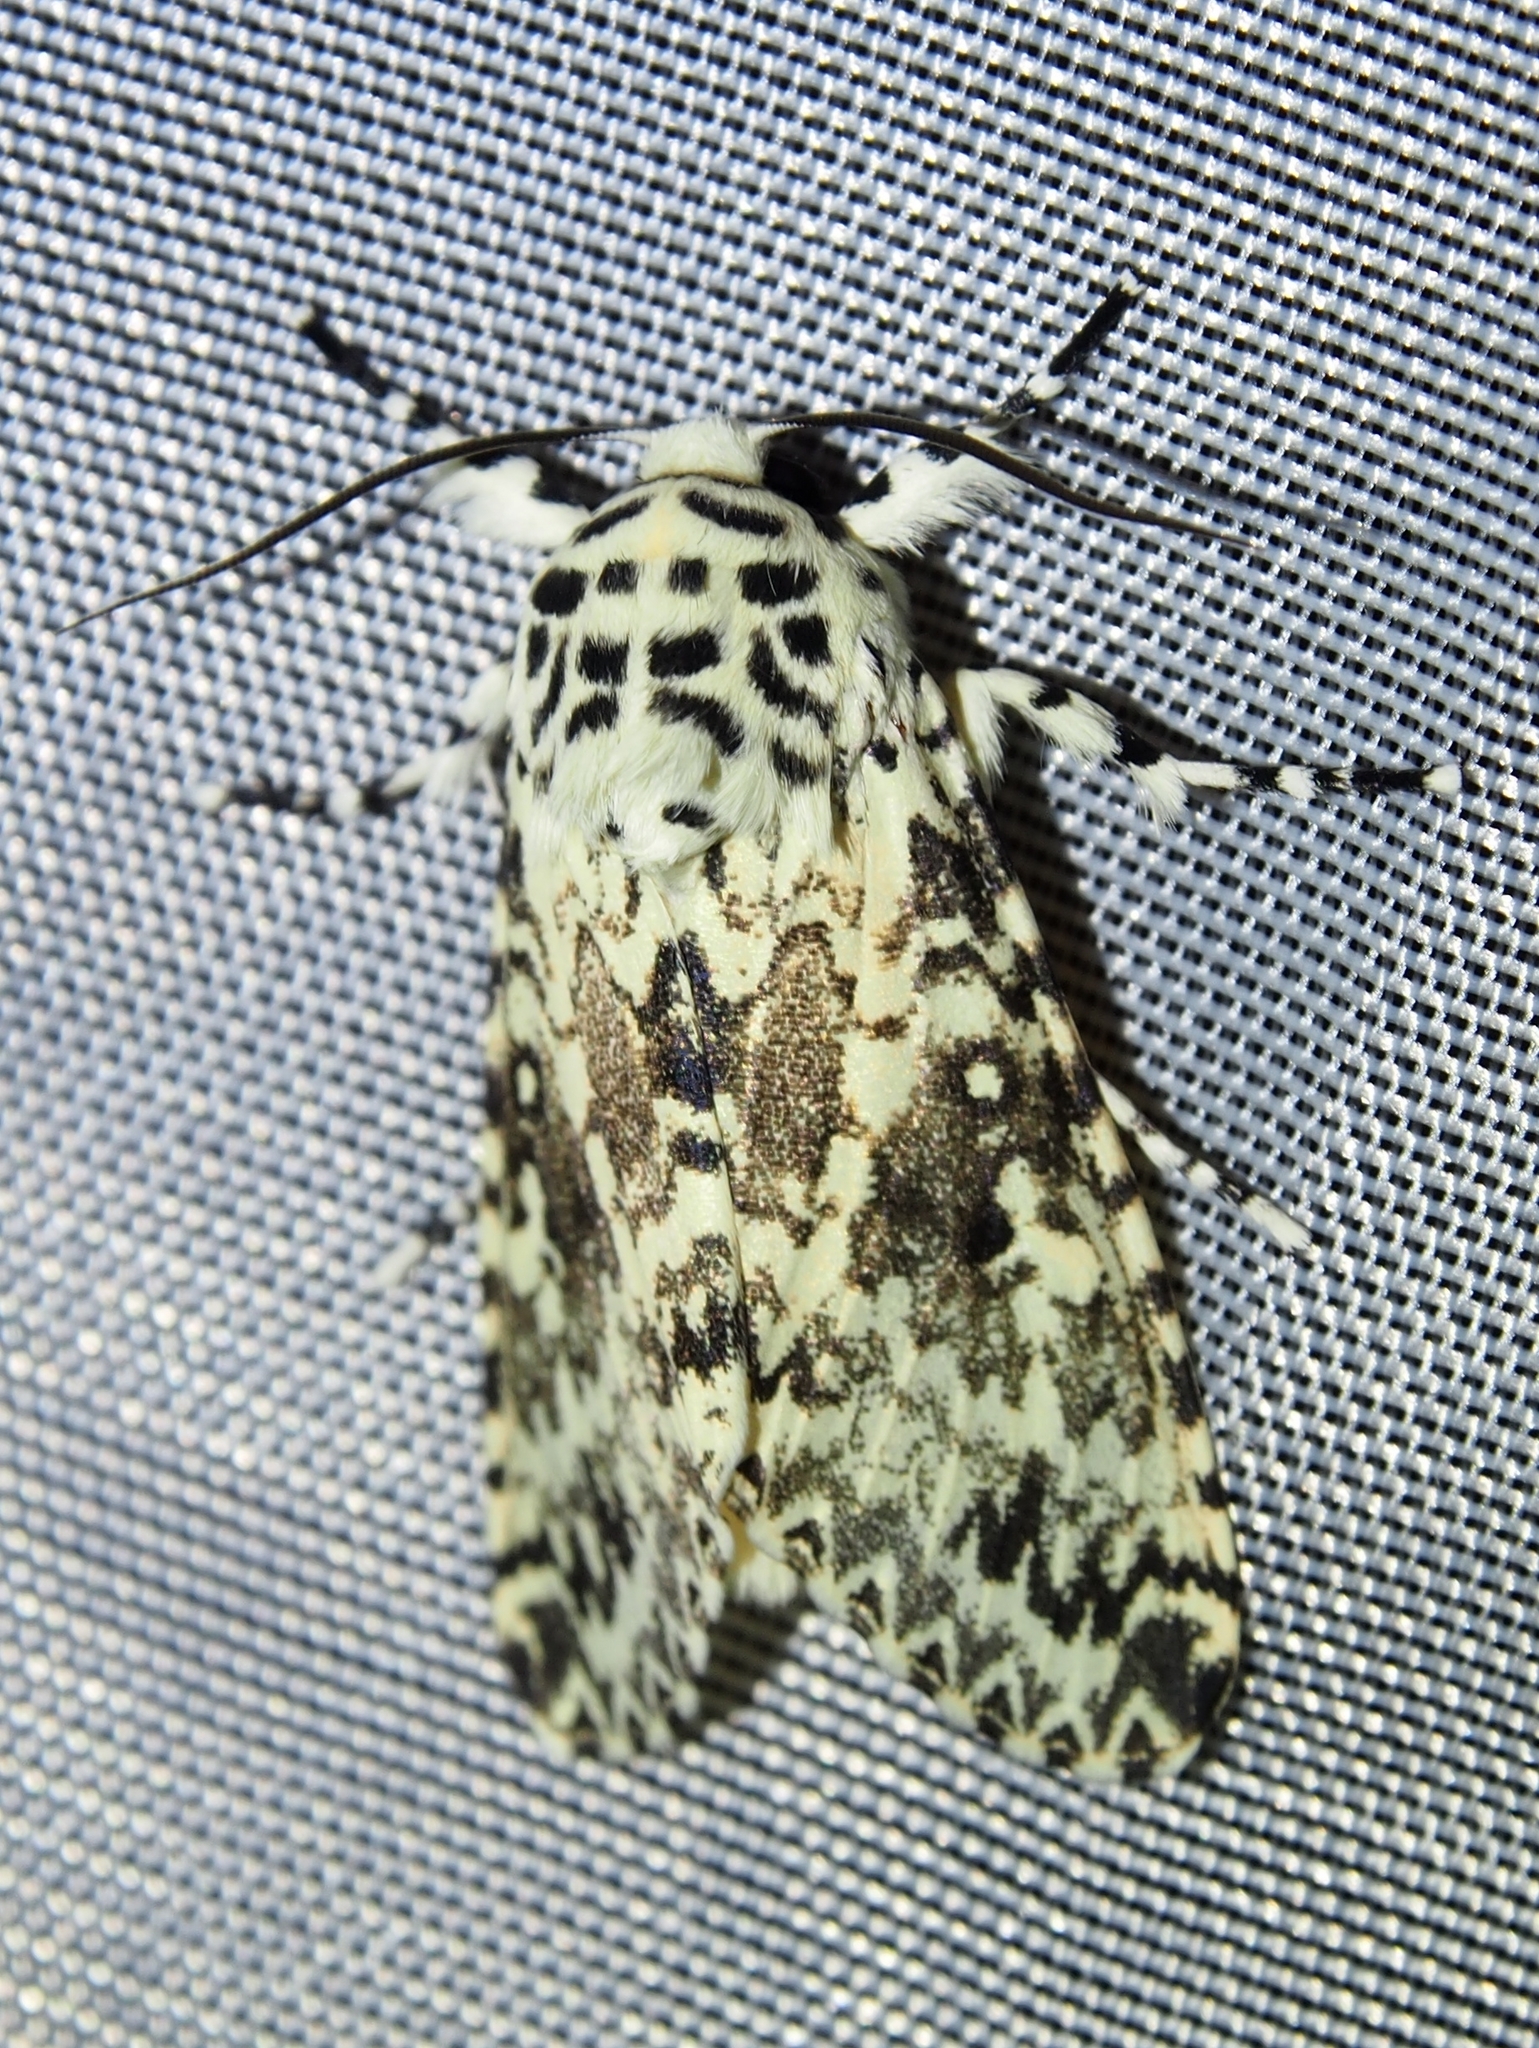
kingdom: Animalia
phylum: Arthropoda
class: Insecta
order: Lepidoptera
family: Noctuidae
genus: Lichnoptera
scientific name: Lichnoptera pollux
